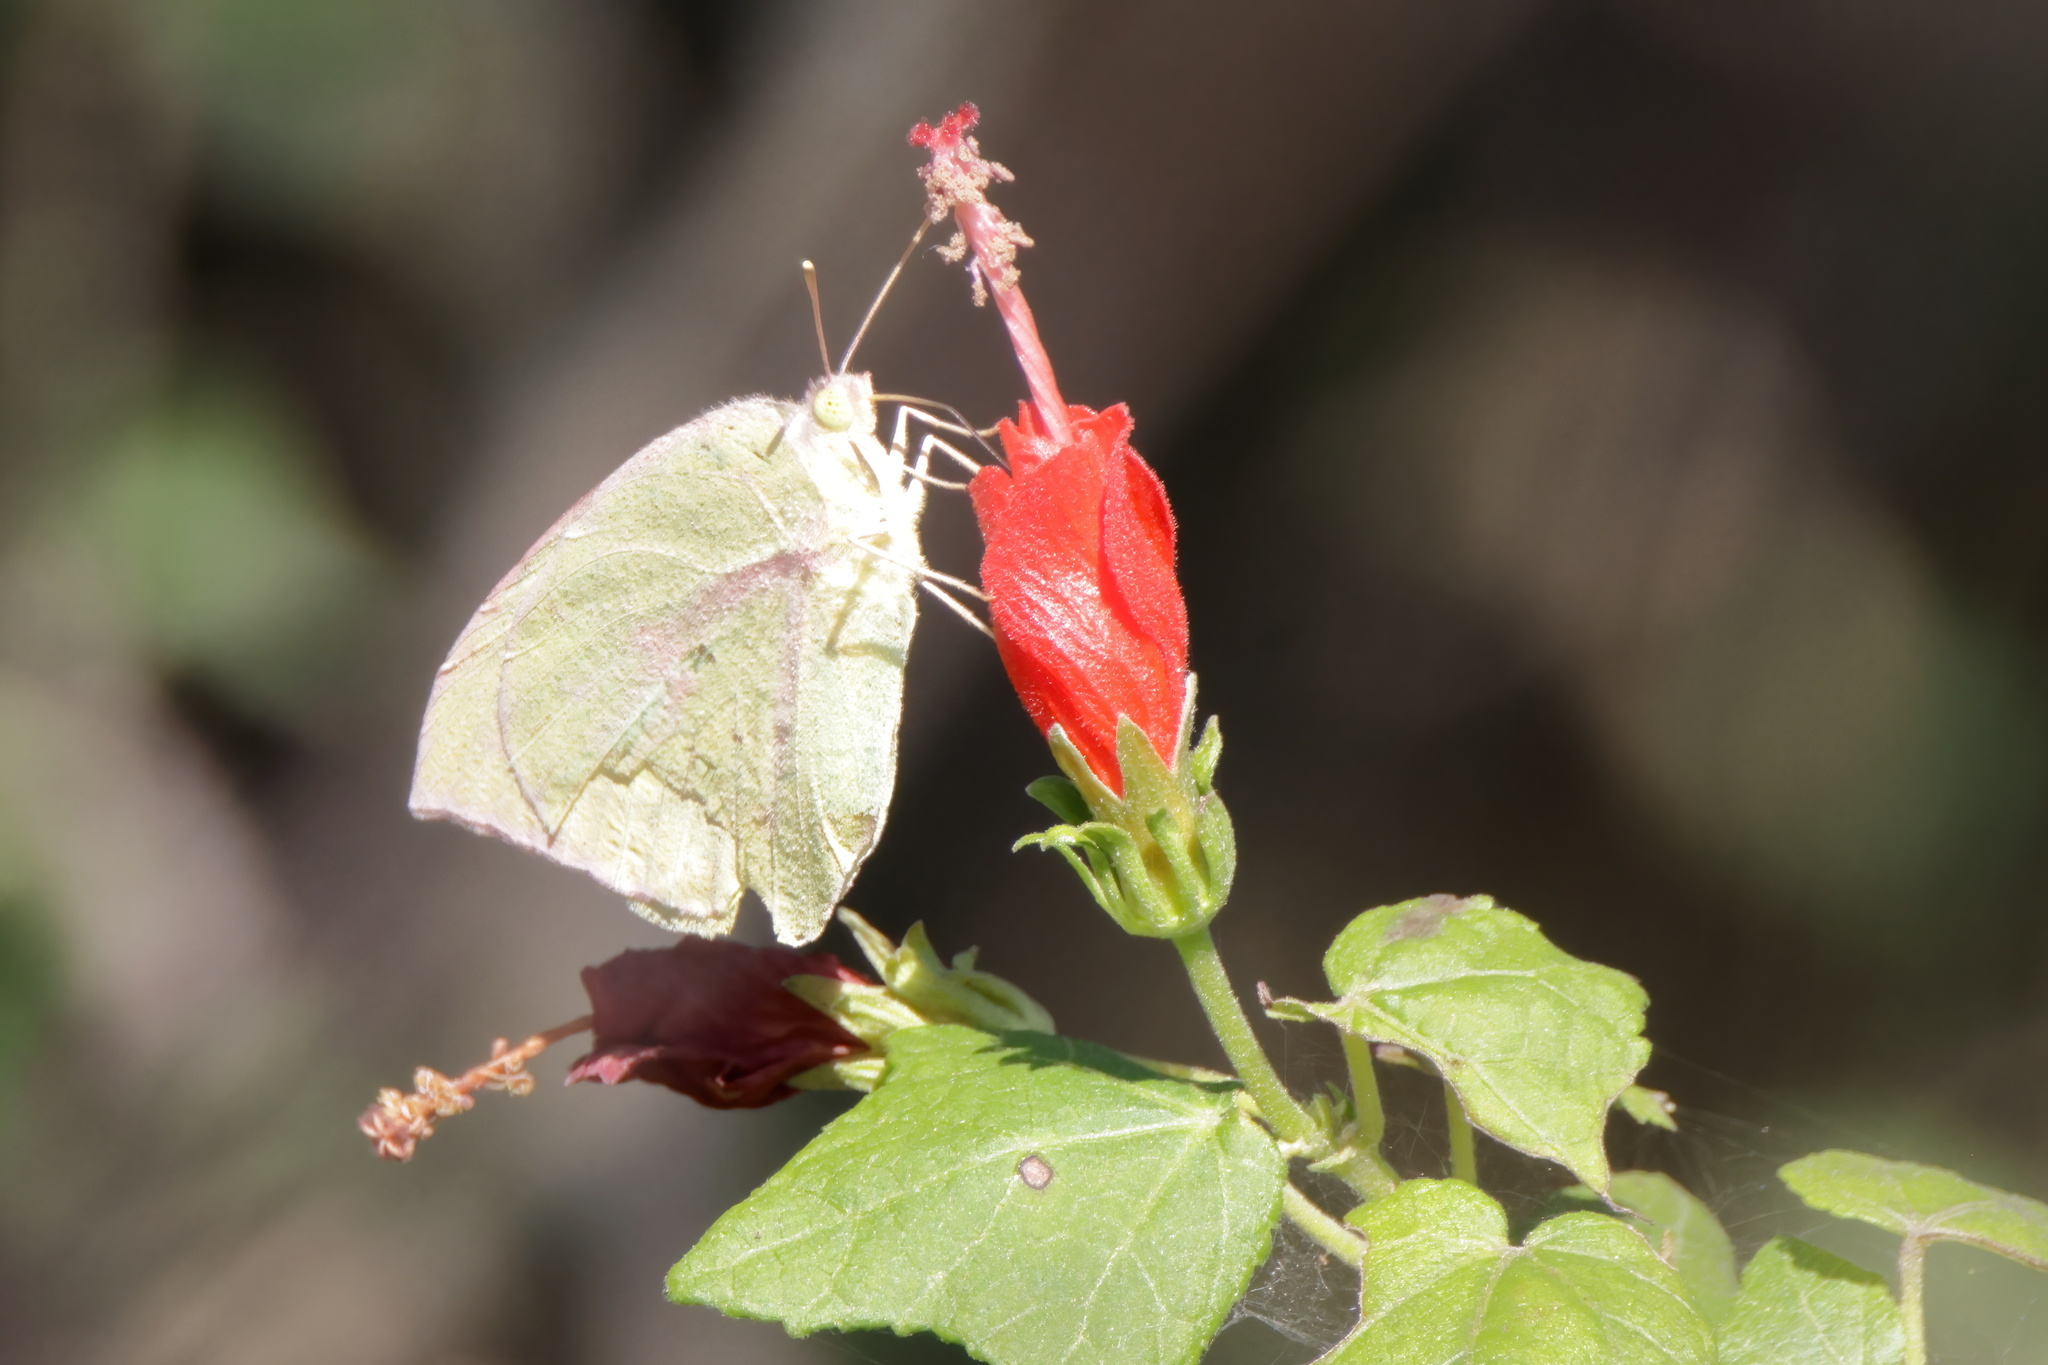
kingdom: Animalia
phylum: Arthropoda
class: Insecta
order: Lepidoptera
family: Pieridae
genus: Zerene
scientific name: Zerene cesonia
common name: Southern dogface
